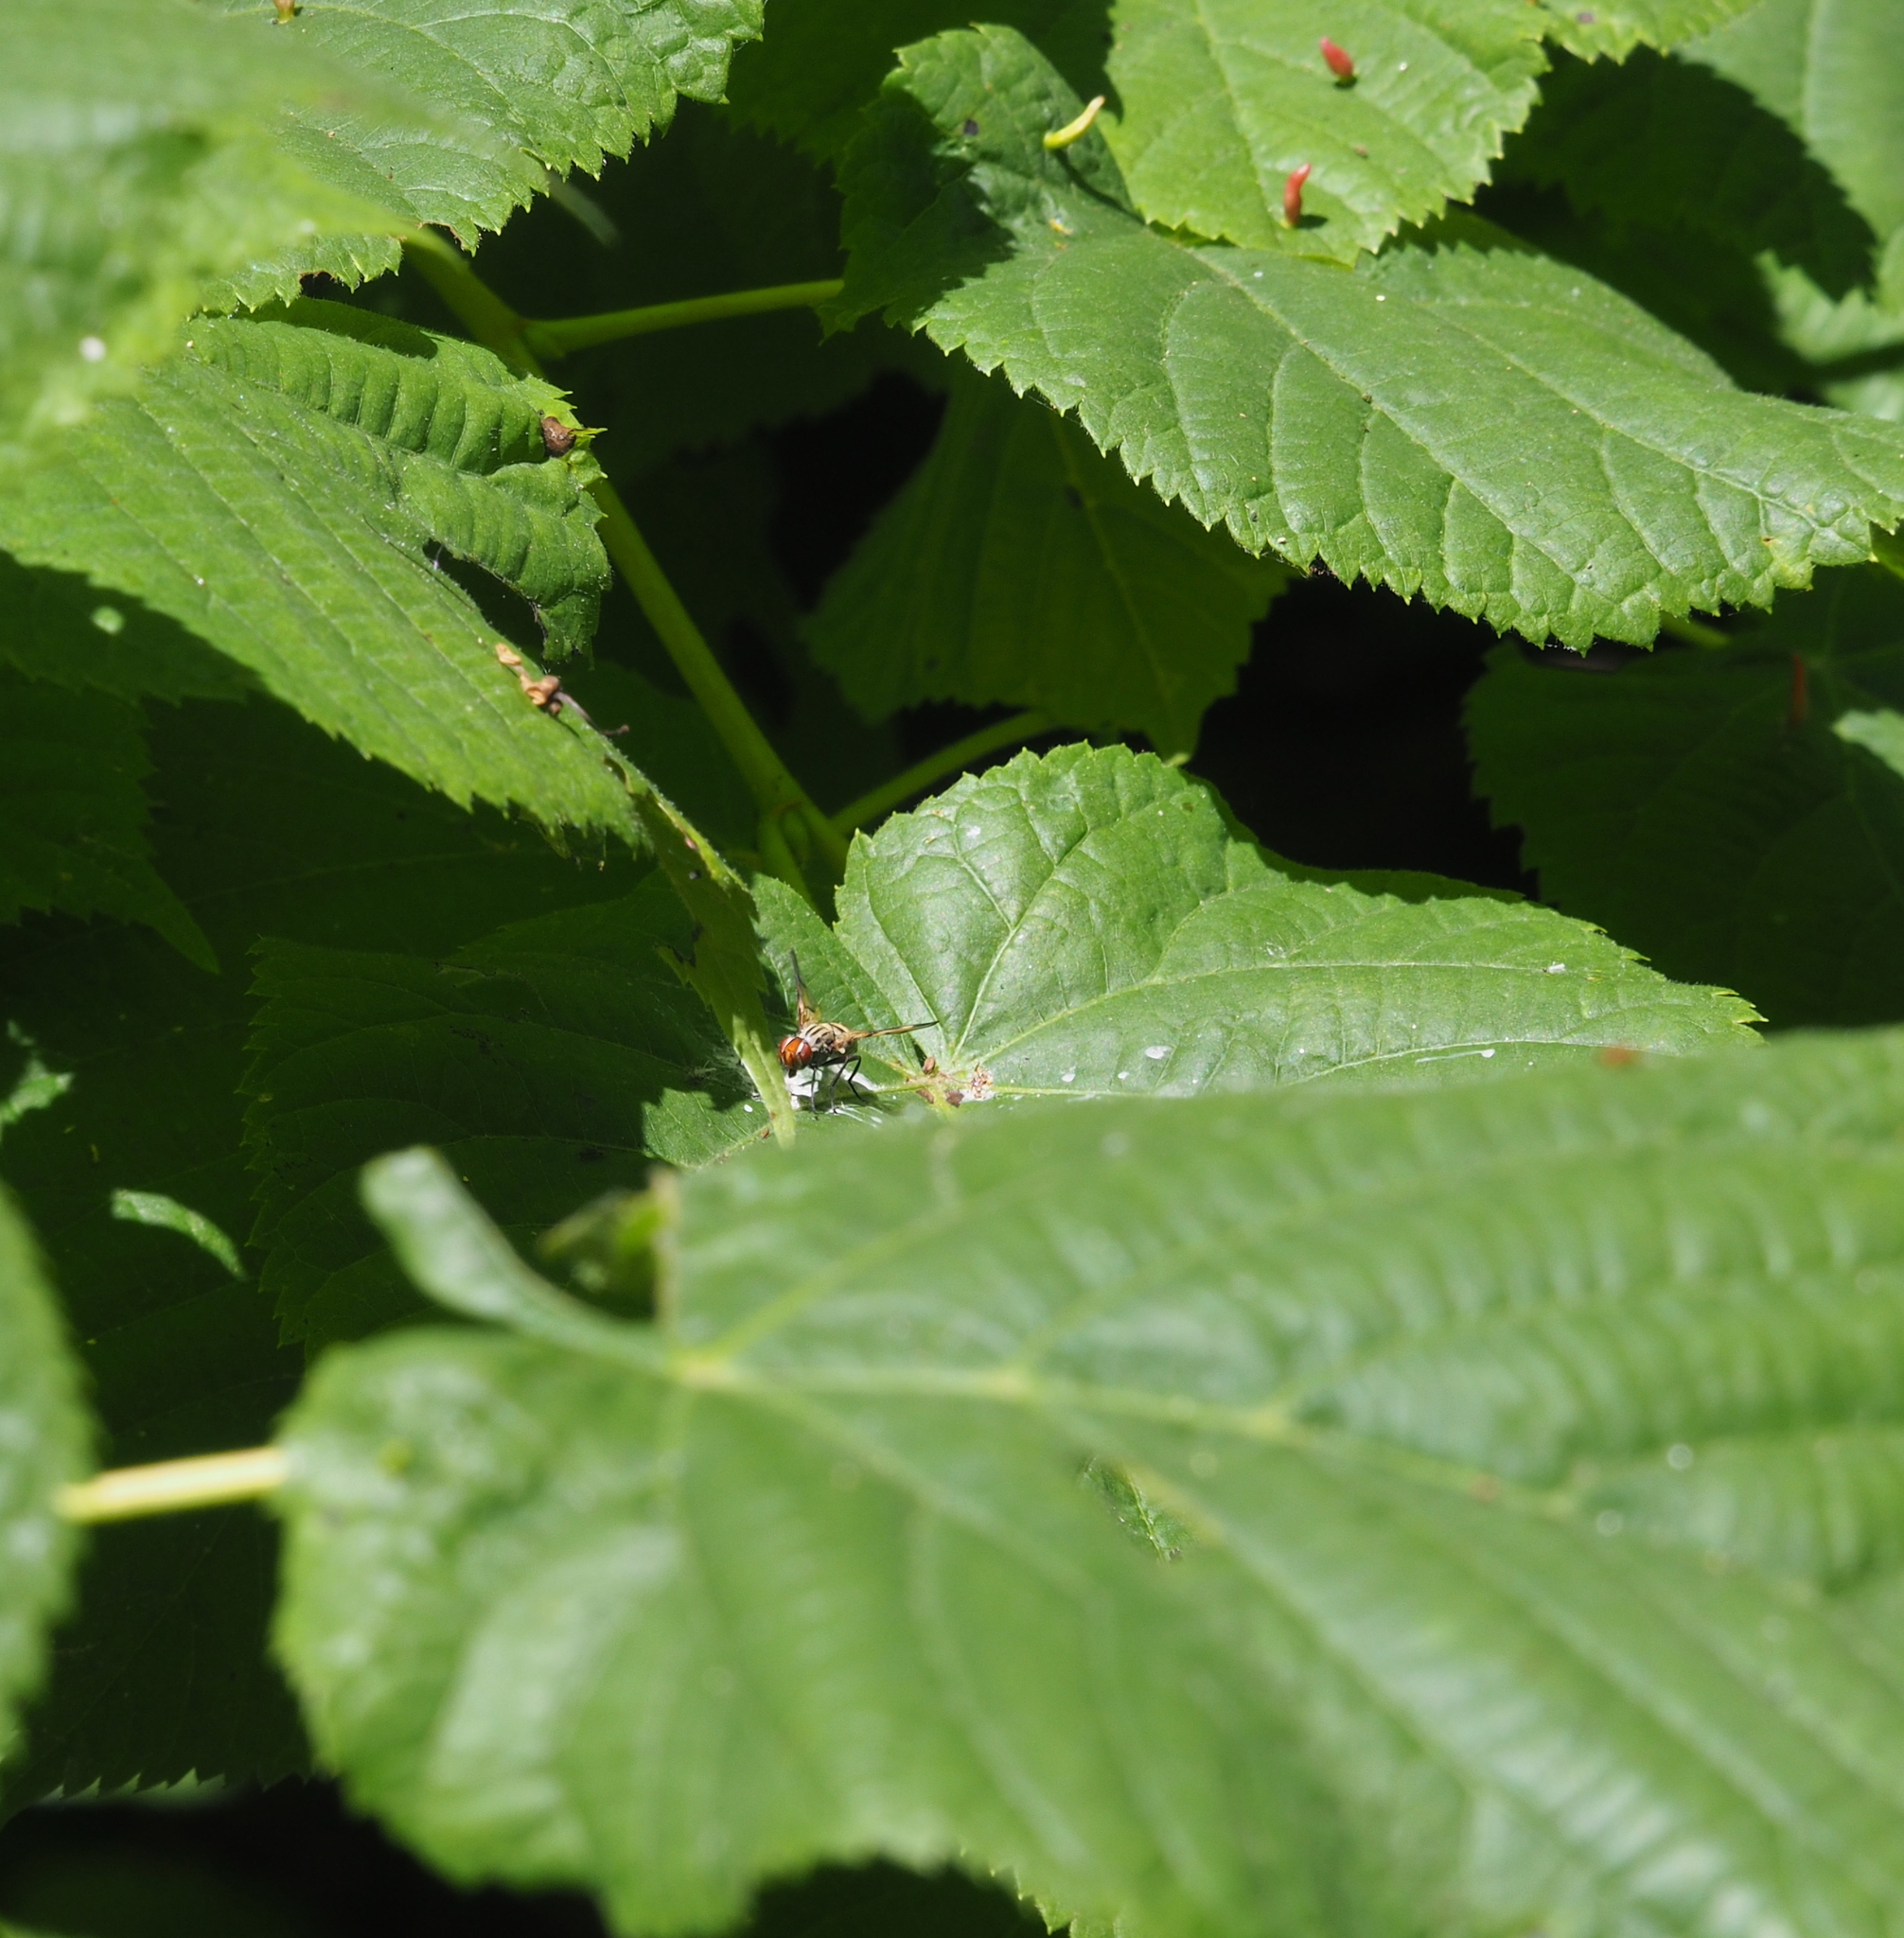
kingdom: Animalia
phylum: Arthropoda
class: Insecta
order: Diptera
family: Ulidiidae
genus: Otites
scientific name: Otites formosa
